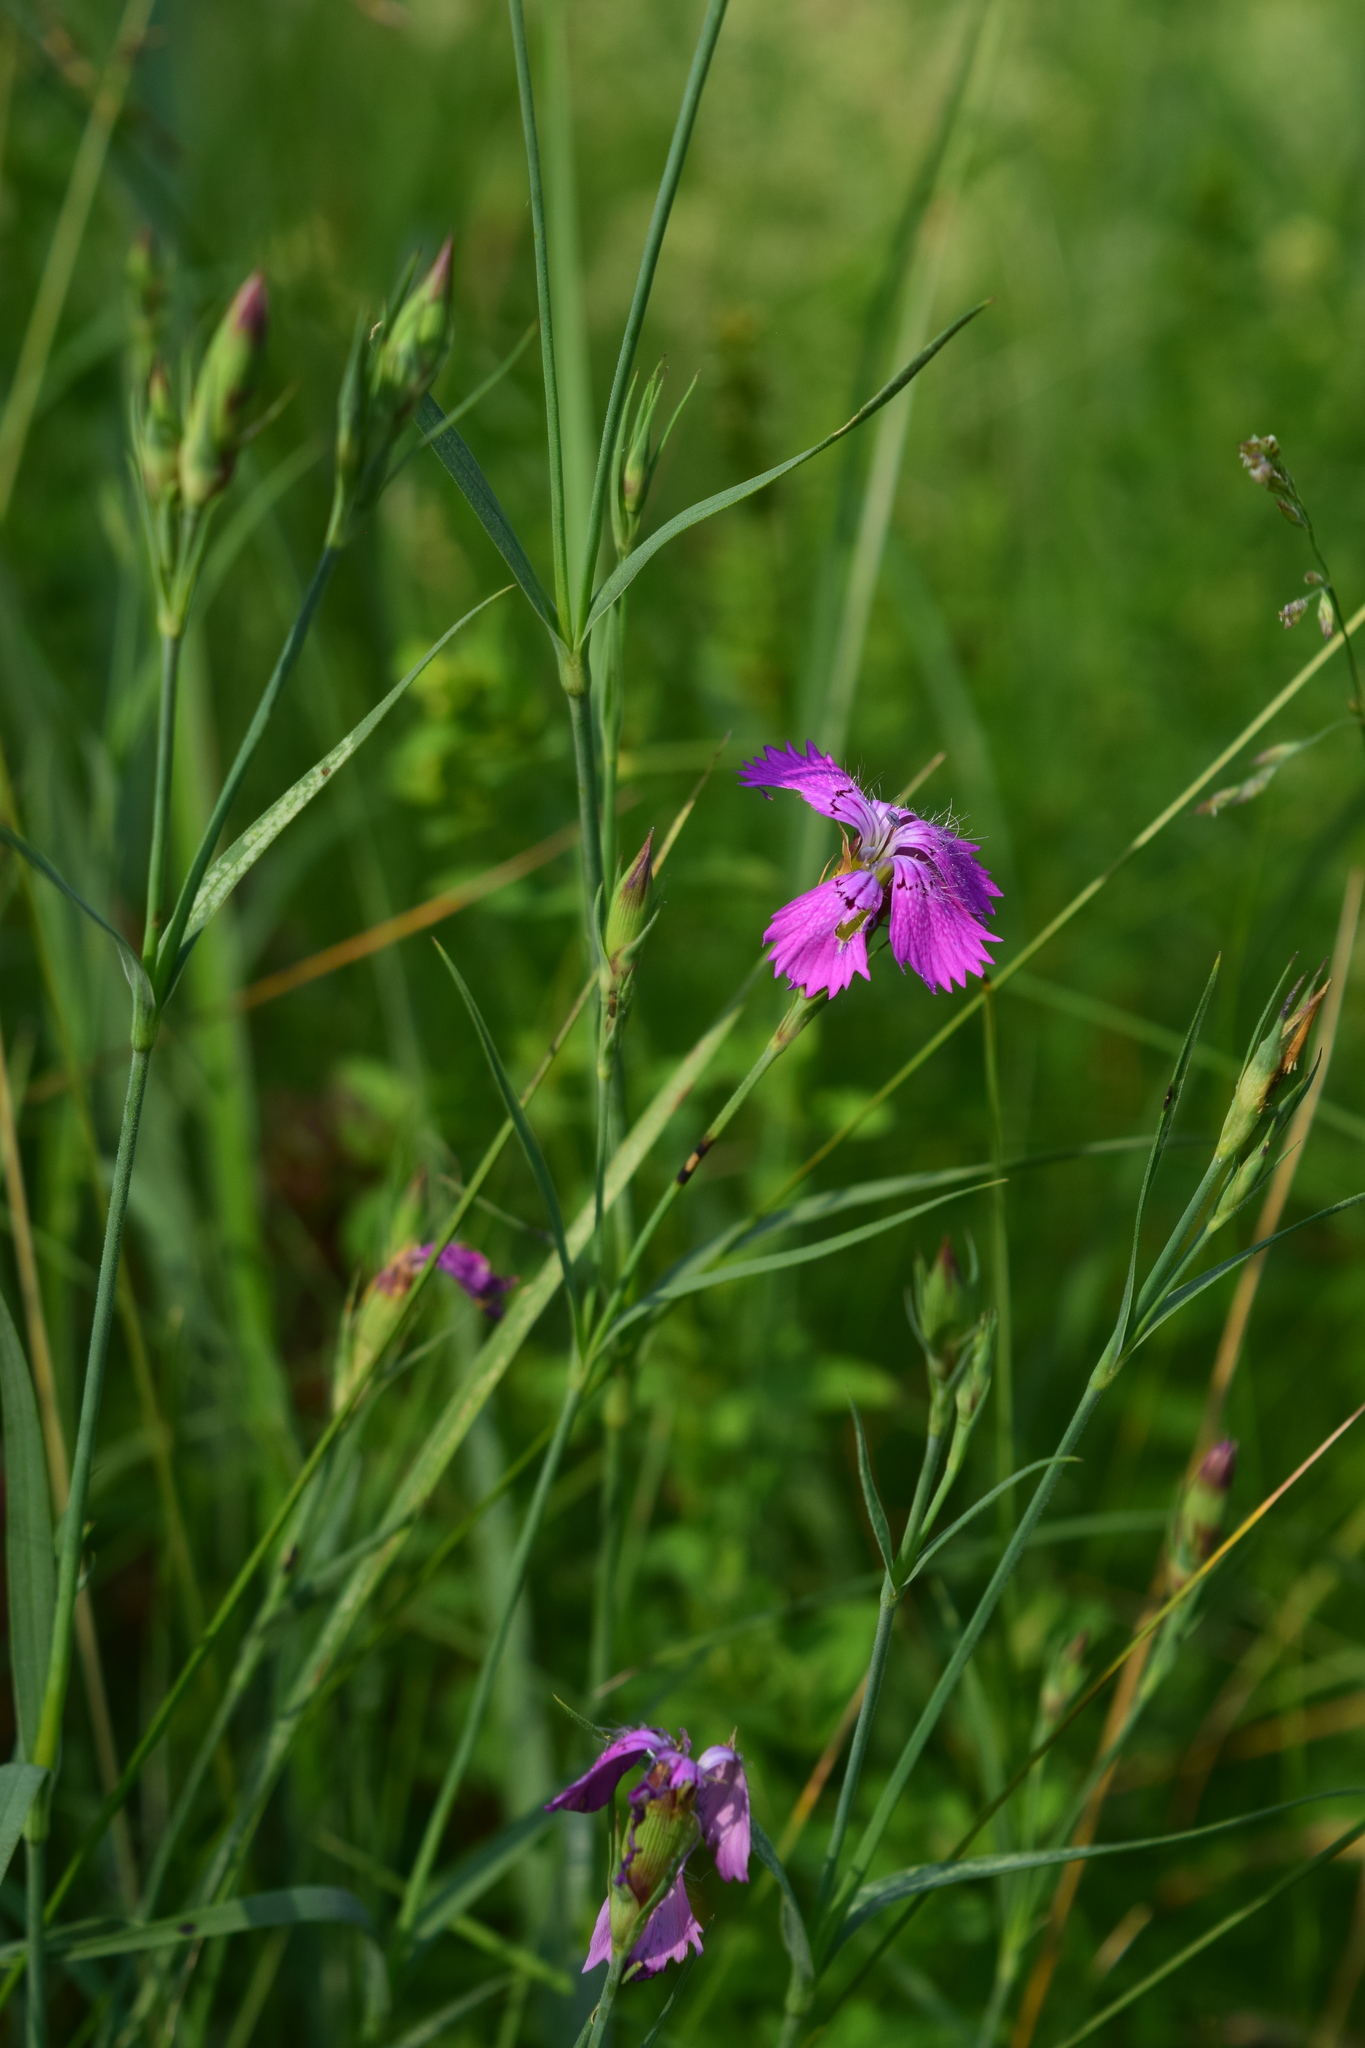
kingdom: Plantae
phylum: Tracheophyta
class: Magnoliopsida
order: Caryophyllales
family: Caryophyllaceae
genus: Dianthus
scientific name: Dianthus chinensis
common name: Rainbow pink
